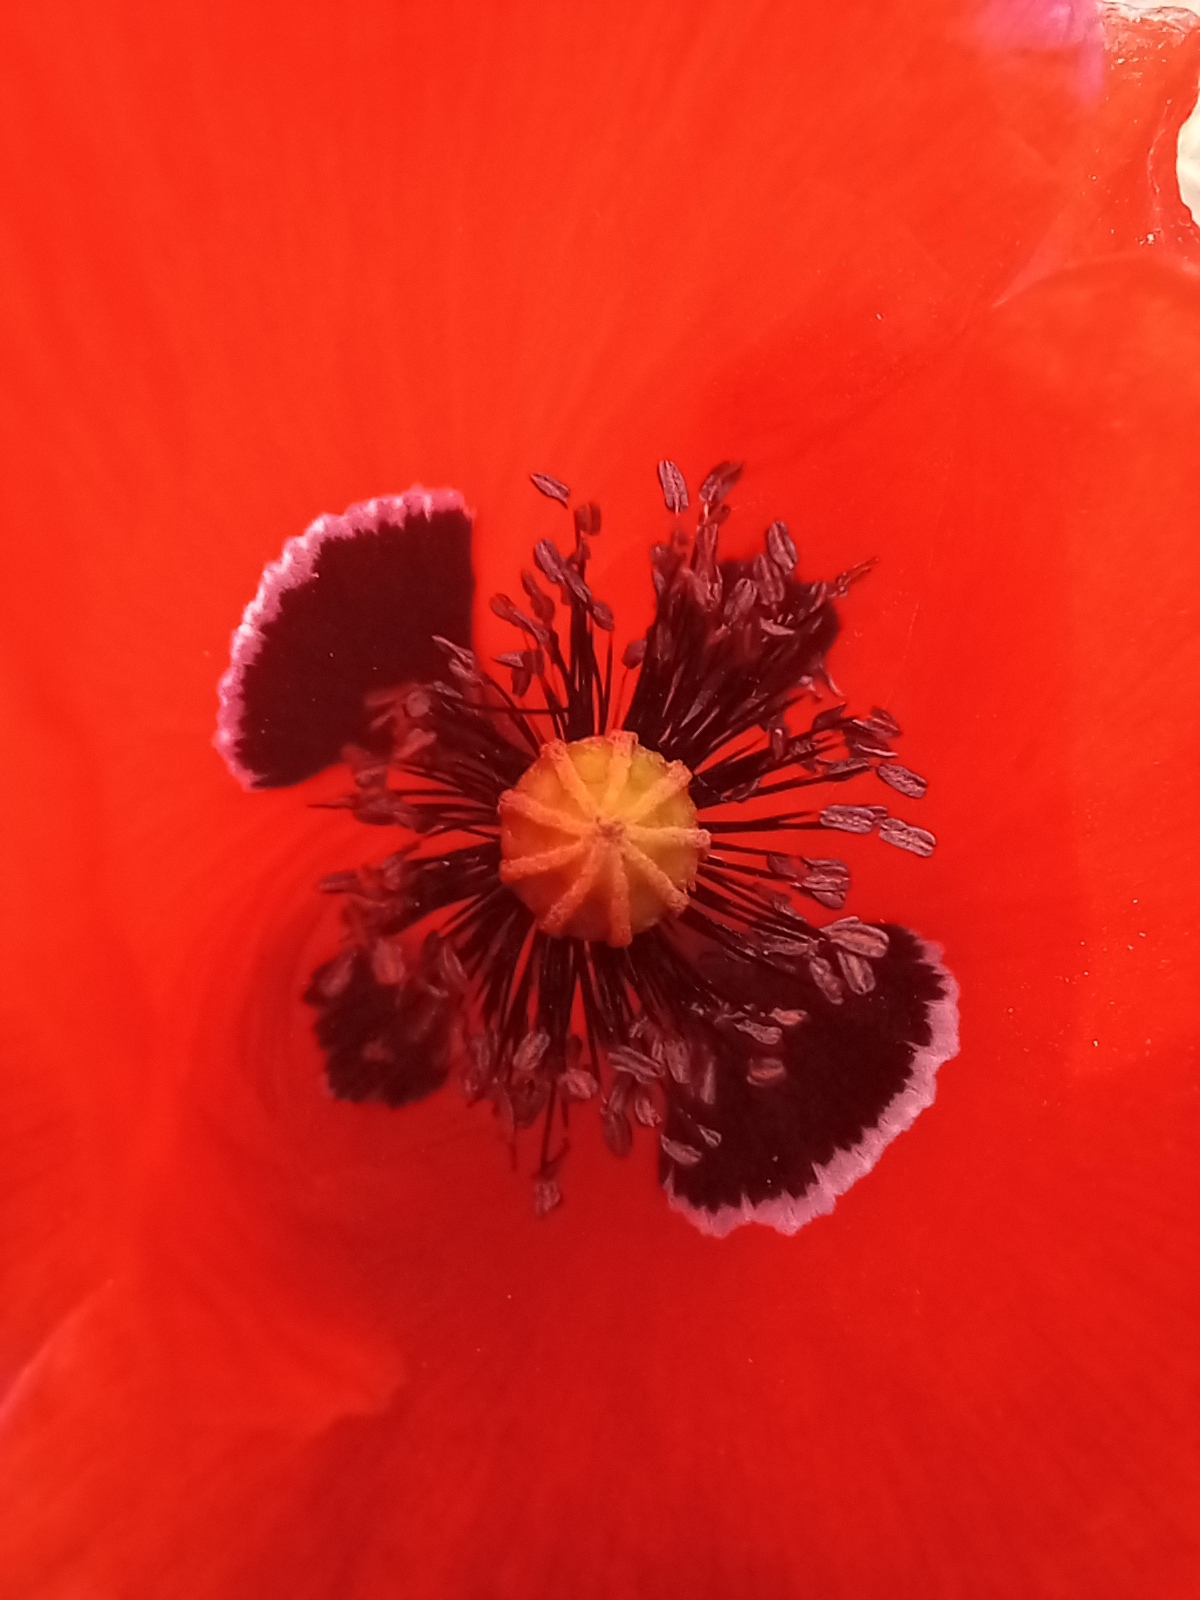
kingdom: Plantae
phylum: Tracheophyta
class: Magnoliopsida
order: Ranunculales
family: Papaveraceae
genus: Papaver
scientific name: Papaver rhoeas
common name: Corn poppy
